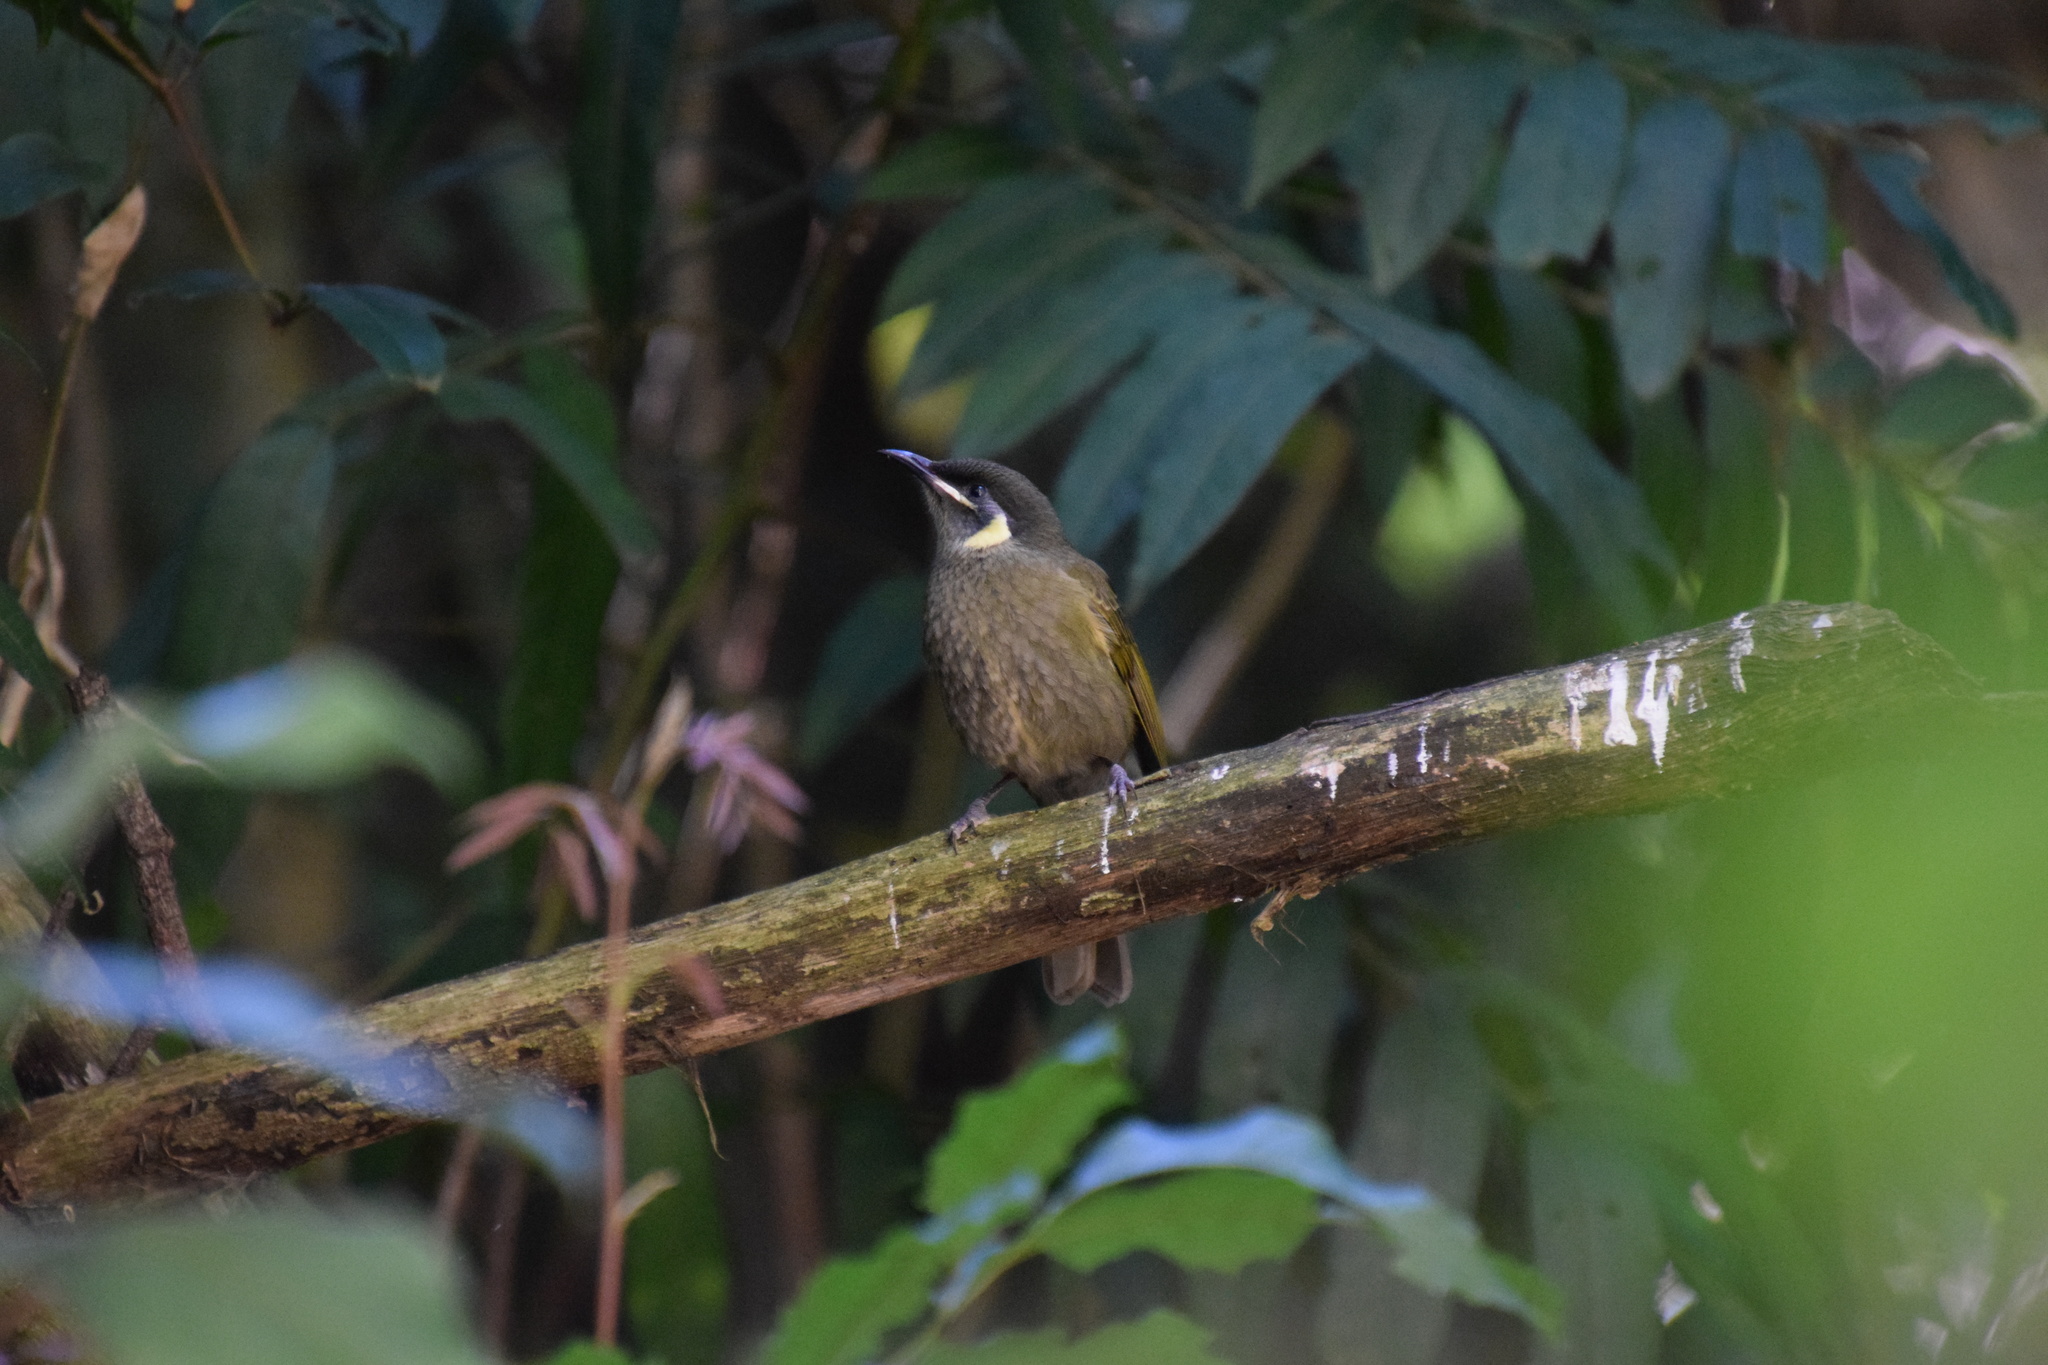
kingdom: Animalia
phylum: Chordata
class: Aves
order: Passeriformes
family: Meliphagidae
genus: Meliphaga
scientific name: Meliphaga lewinii
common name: Lewin's honeyeater
